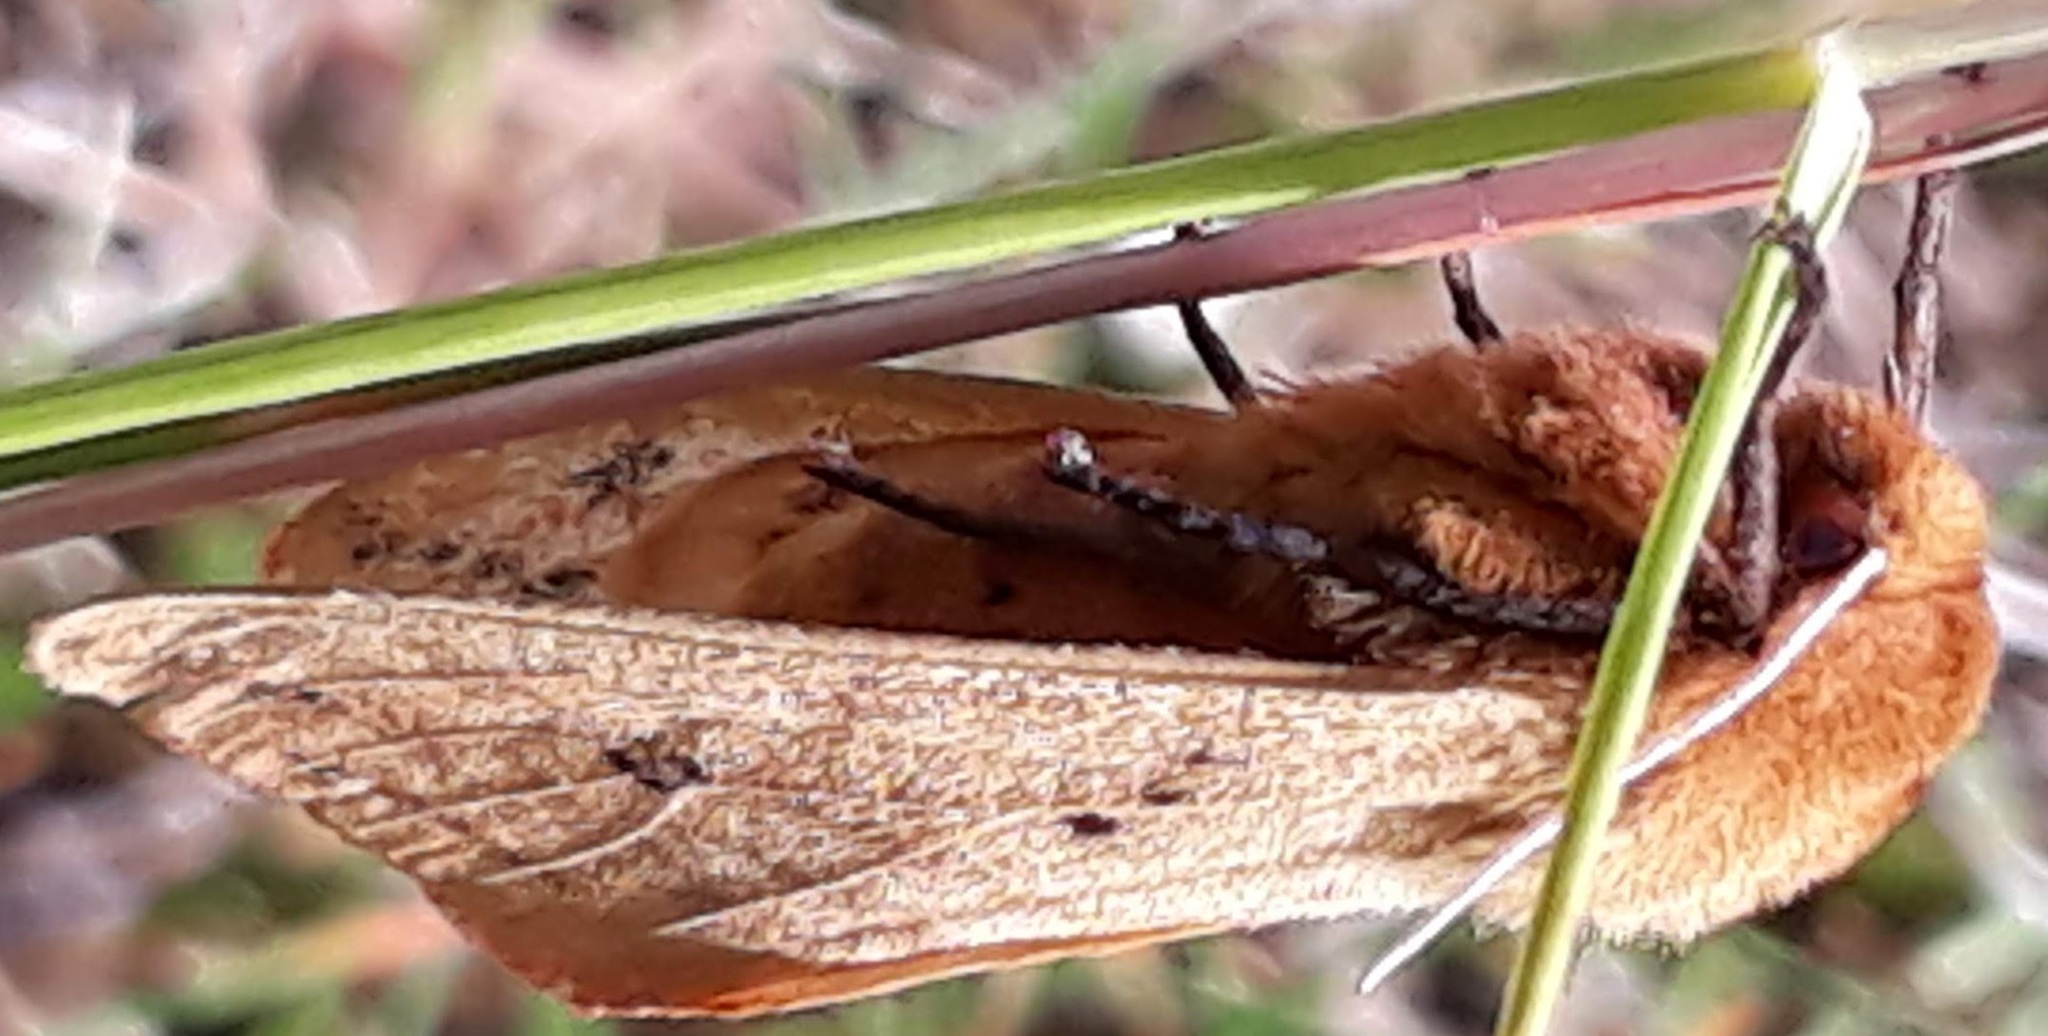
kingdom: Animalia
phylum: Arthropoda
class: Insecta
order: Lepidoptera
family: Erebidae
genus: Pyrrharctia
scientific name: Pyrrharctia isabella
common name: Isabella tiger moth
